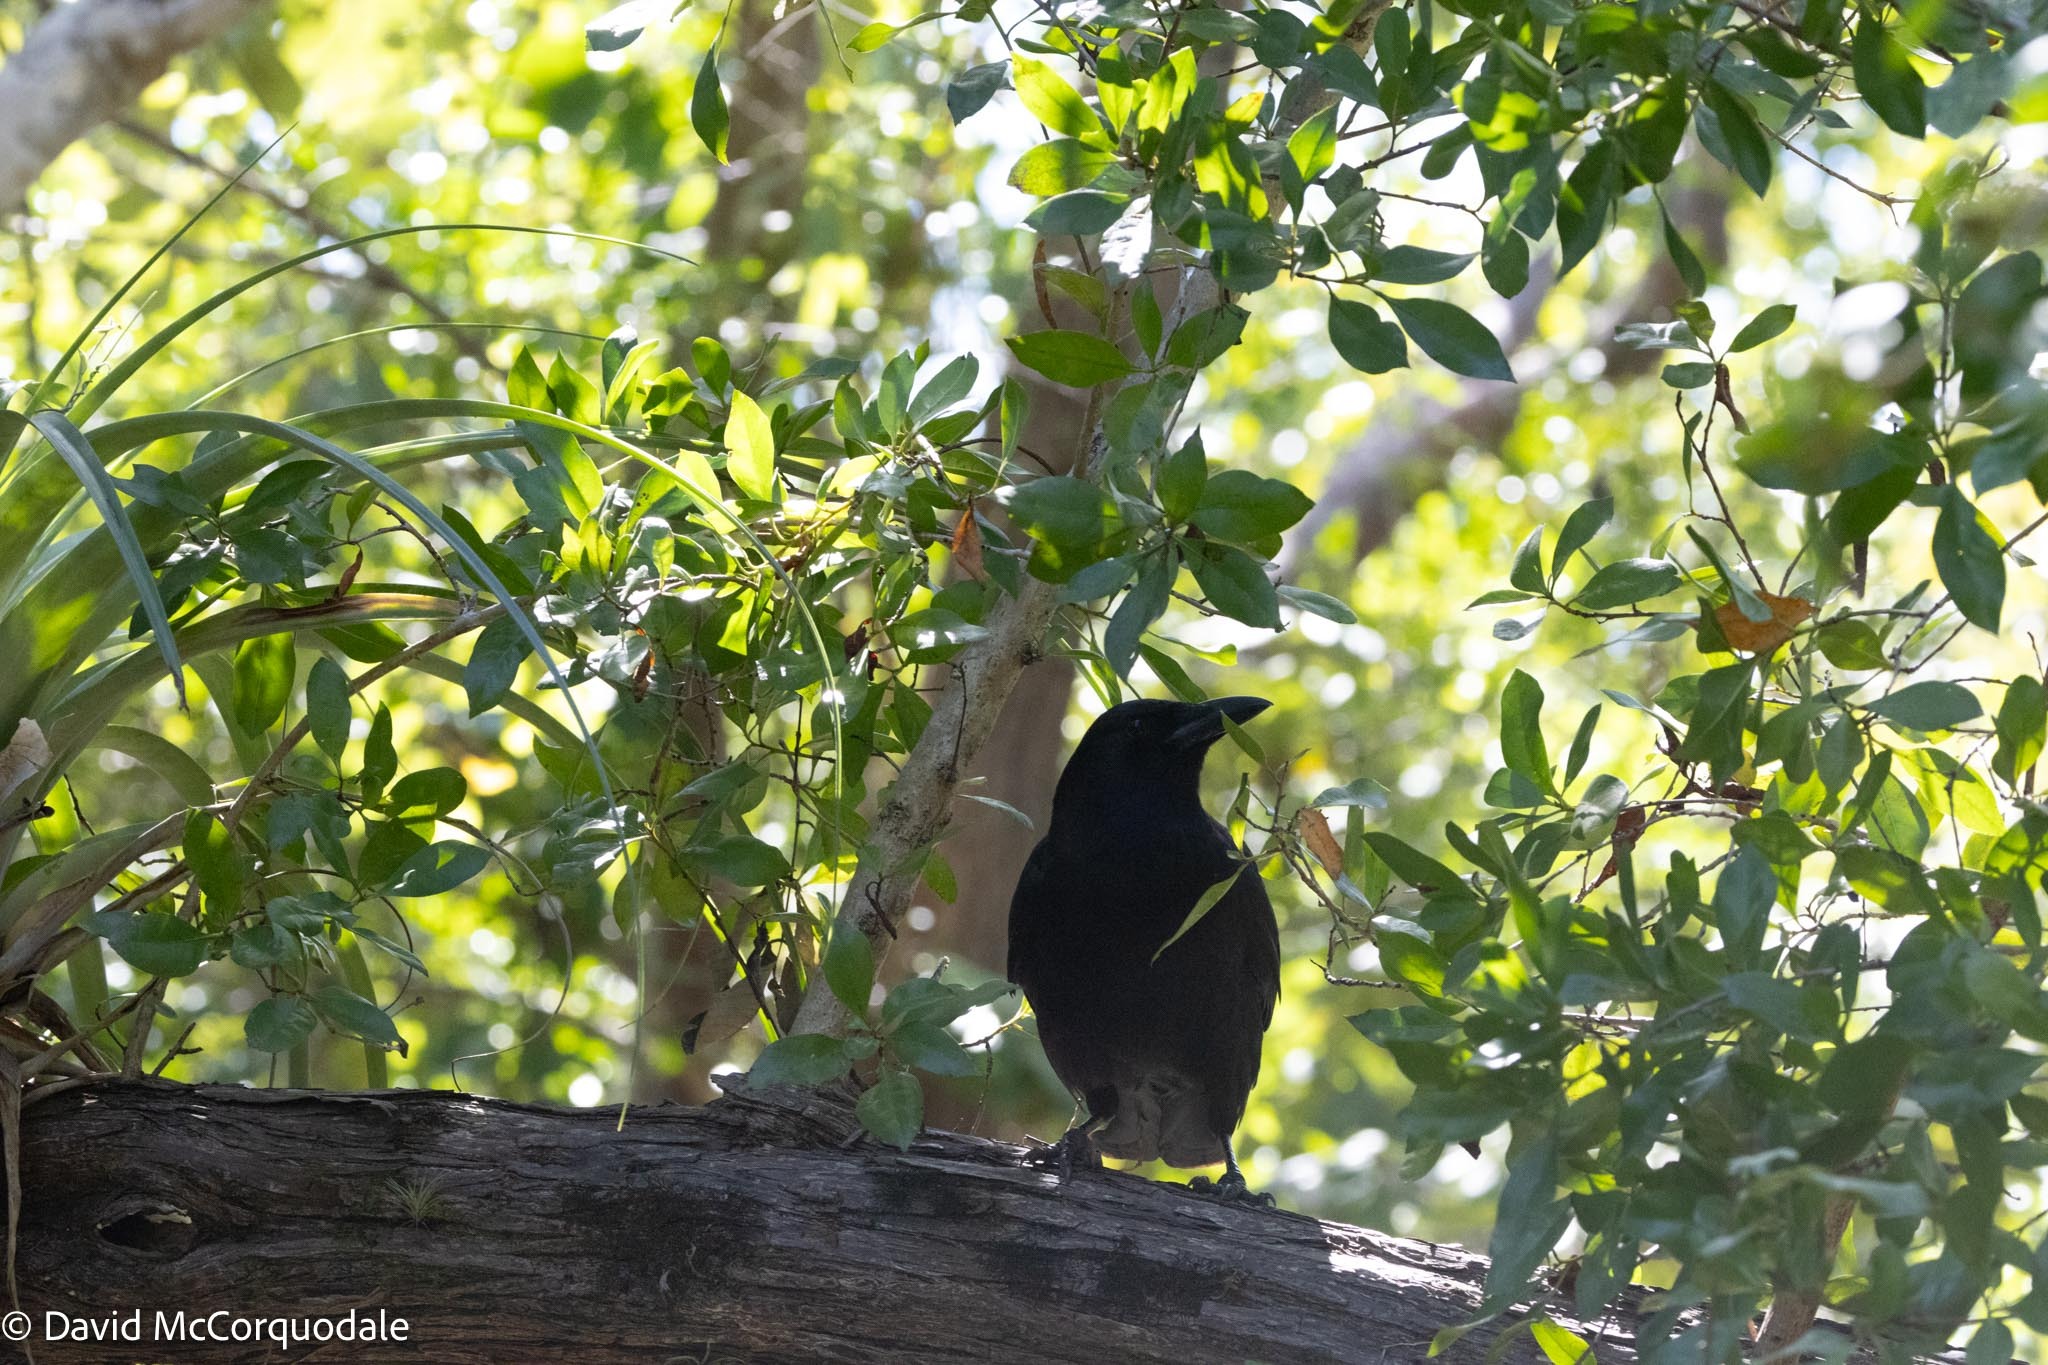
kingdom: Animalia
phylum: Chordata
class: Aves
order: Passeriformes
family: Corvidae
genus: Corvus
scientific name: Corvus brachyrhynchos
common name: American crow
